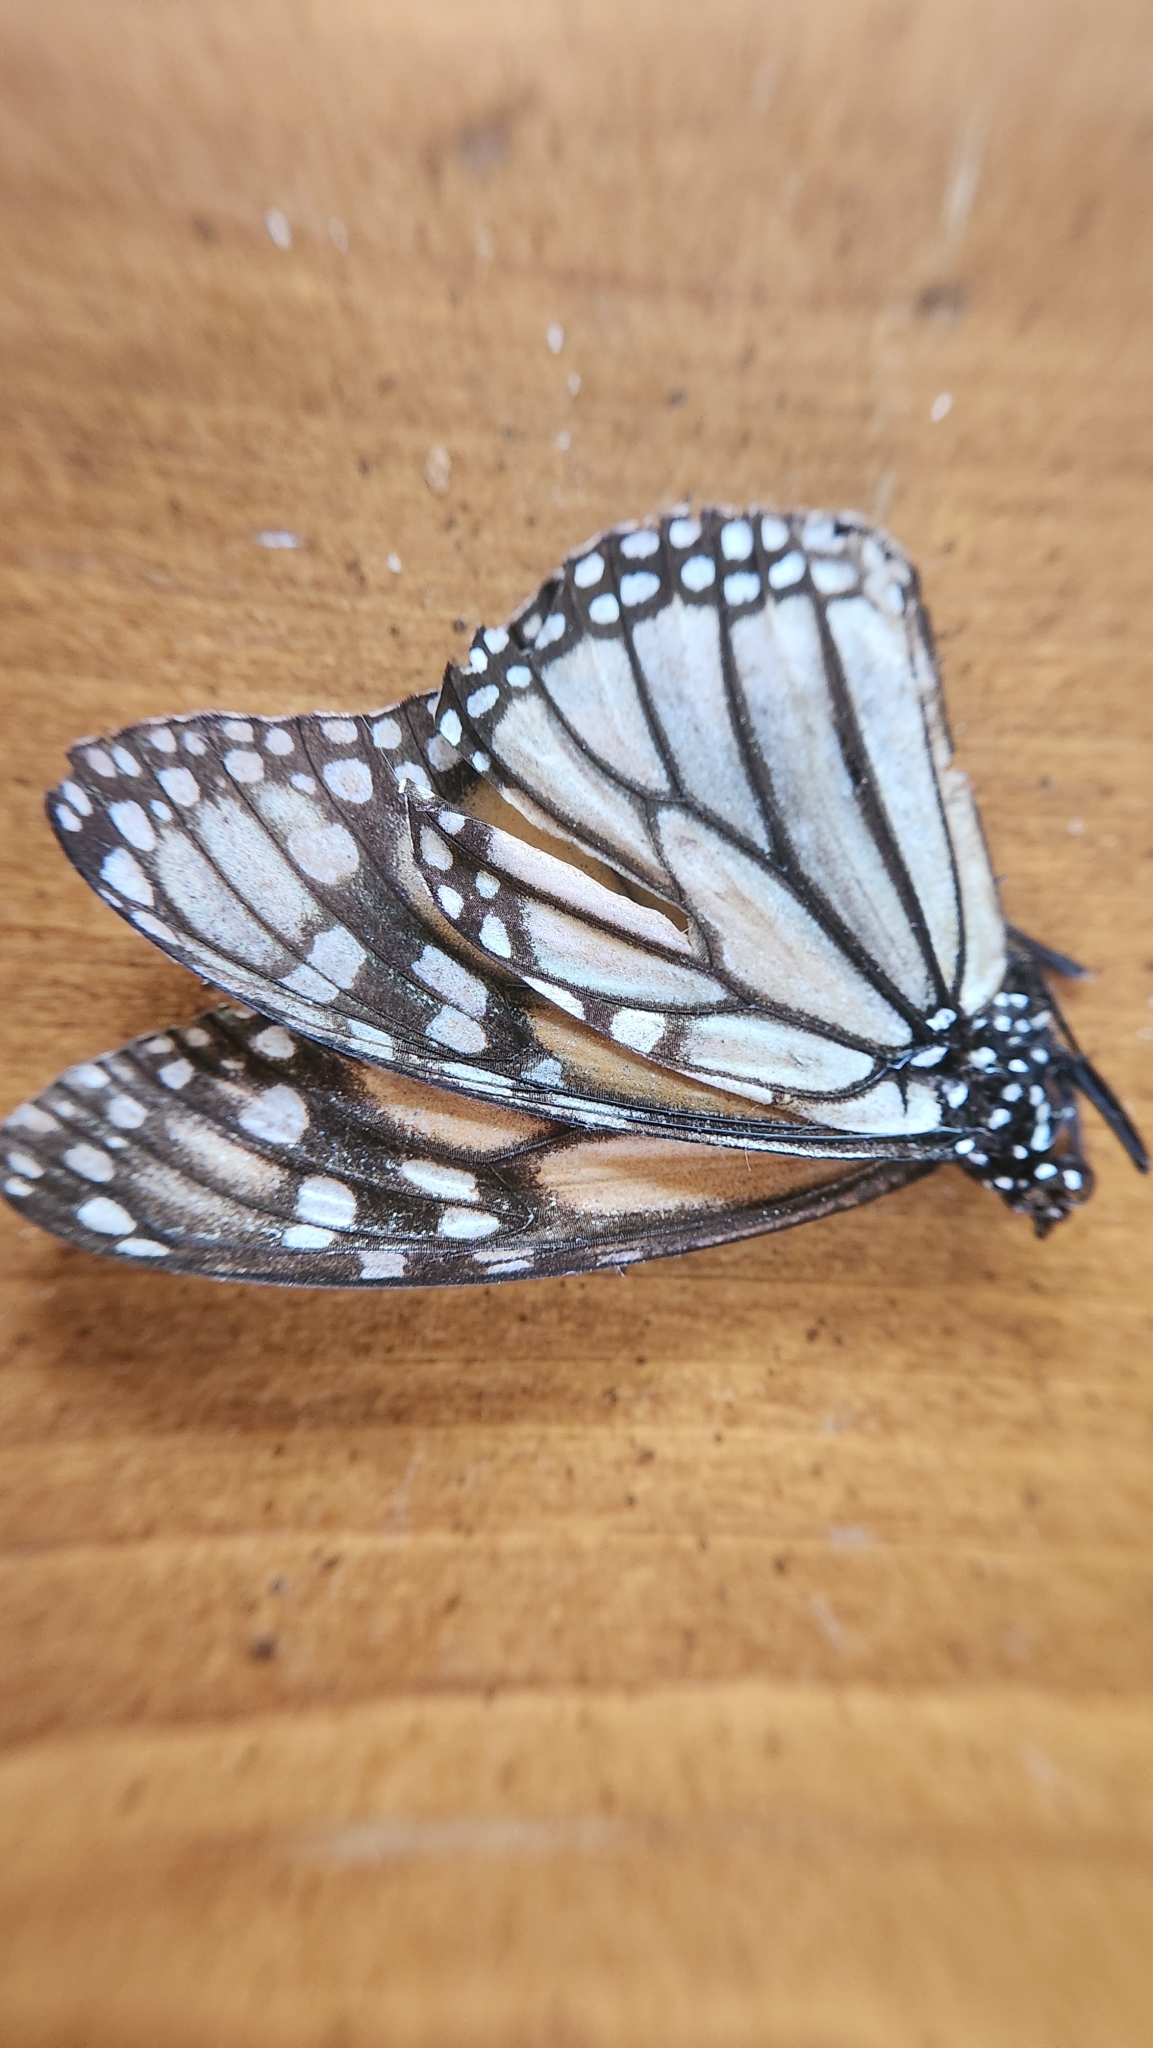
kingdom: Animalia
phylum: Arthropoda
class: Insecta
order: Lepidoptera
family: Nymphalidae
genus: Danaus
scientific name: Danaus plexippus
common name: Monarch
